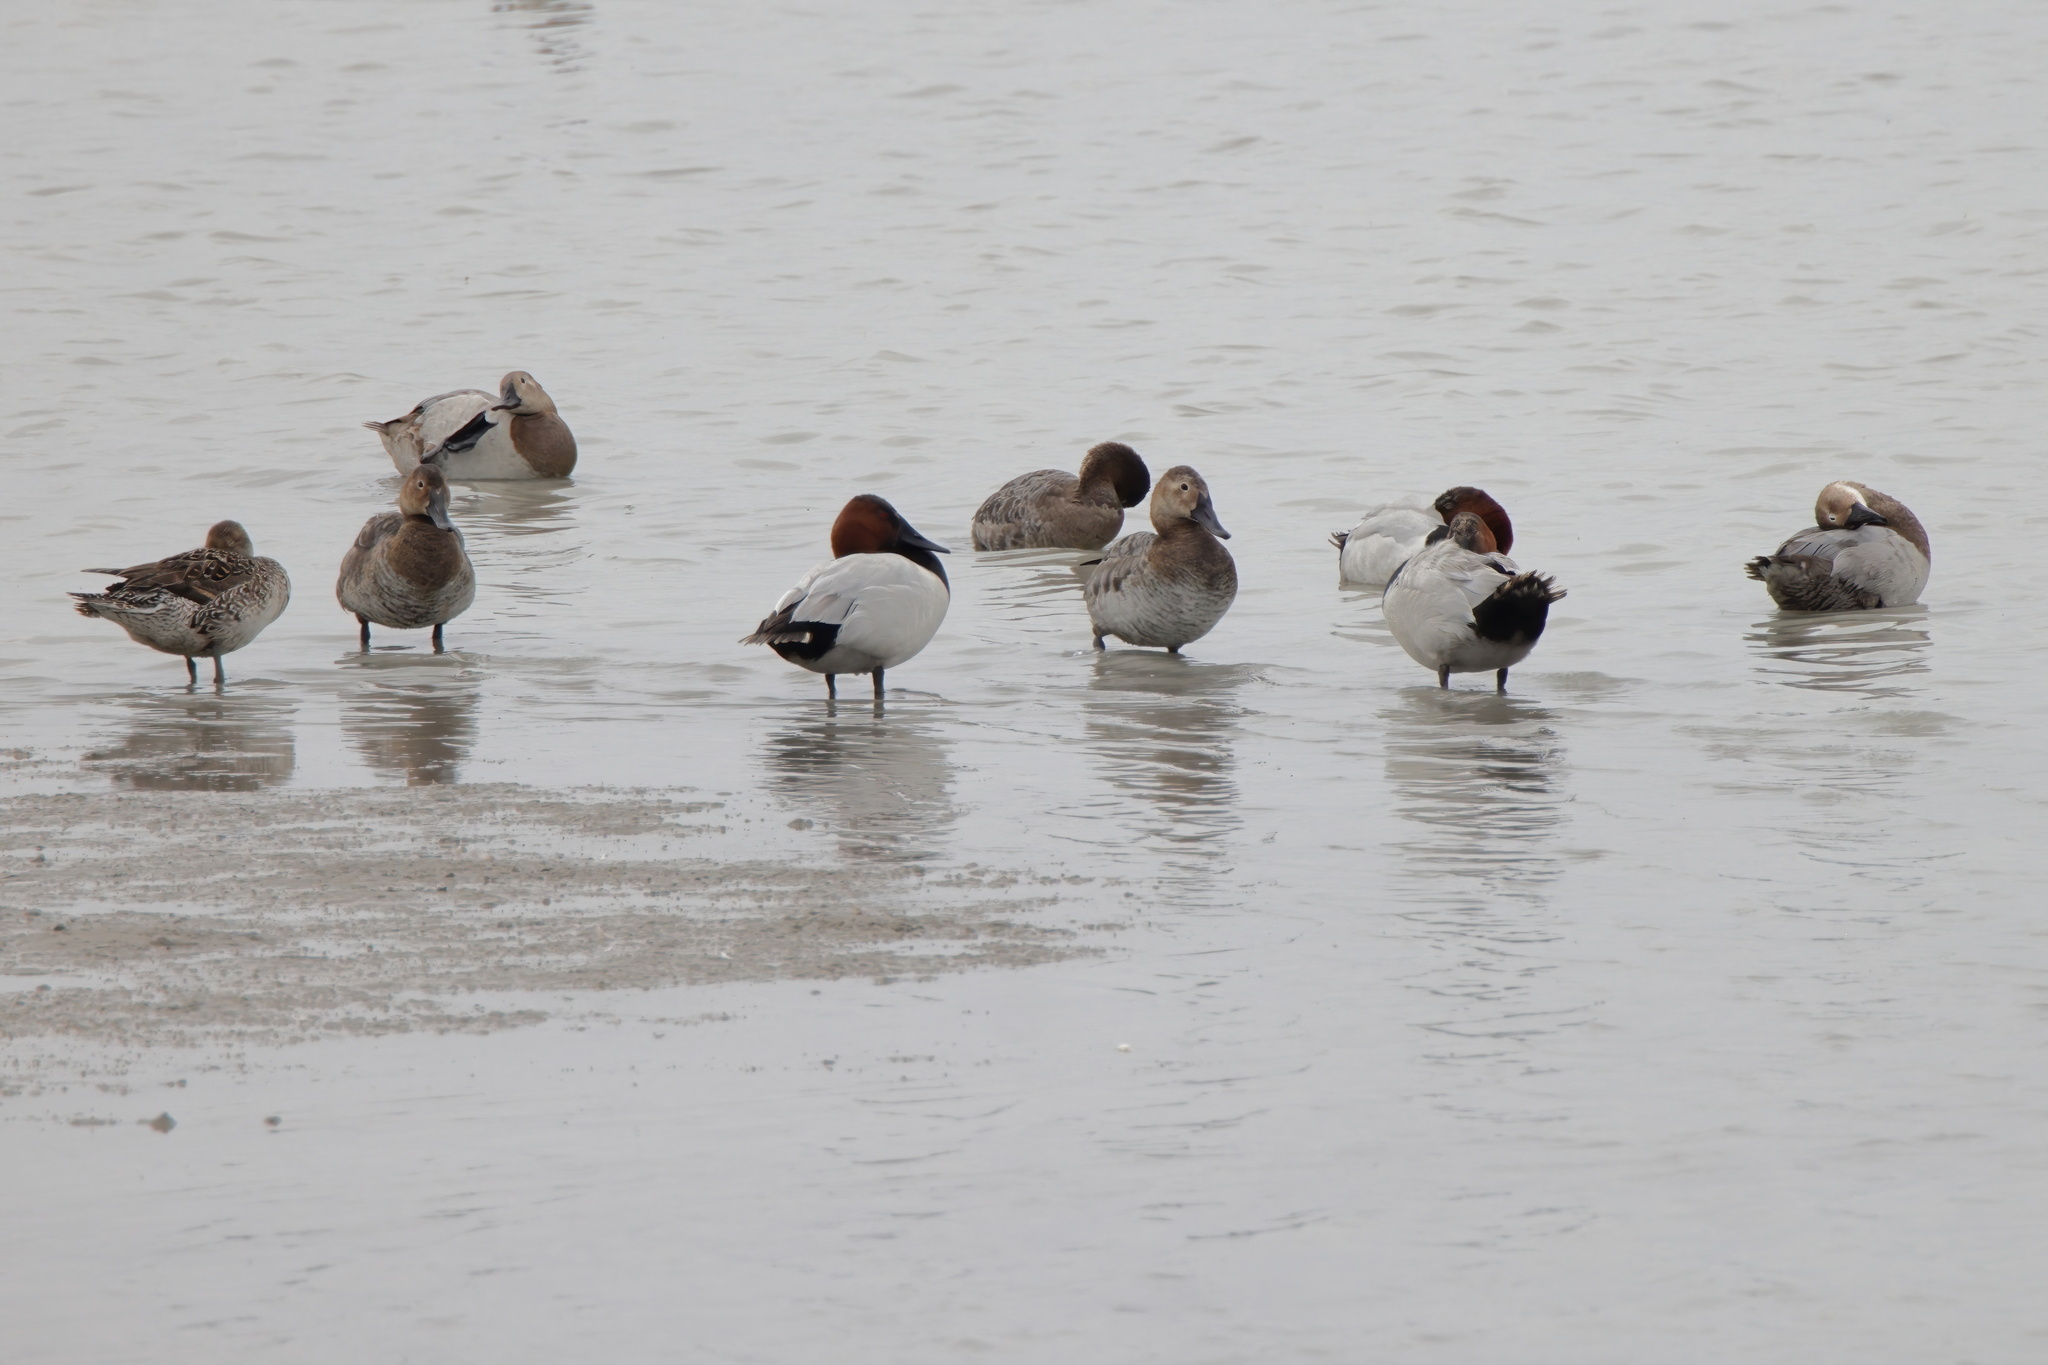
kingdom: Animalia
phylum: Chordata
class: Aves
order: Anseriformes
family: Anatidae
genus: Aythya
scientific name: Aythya valisineria
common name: Canvasback
